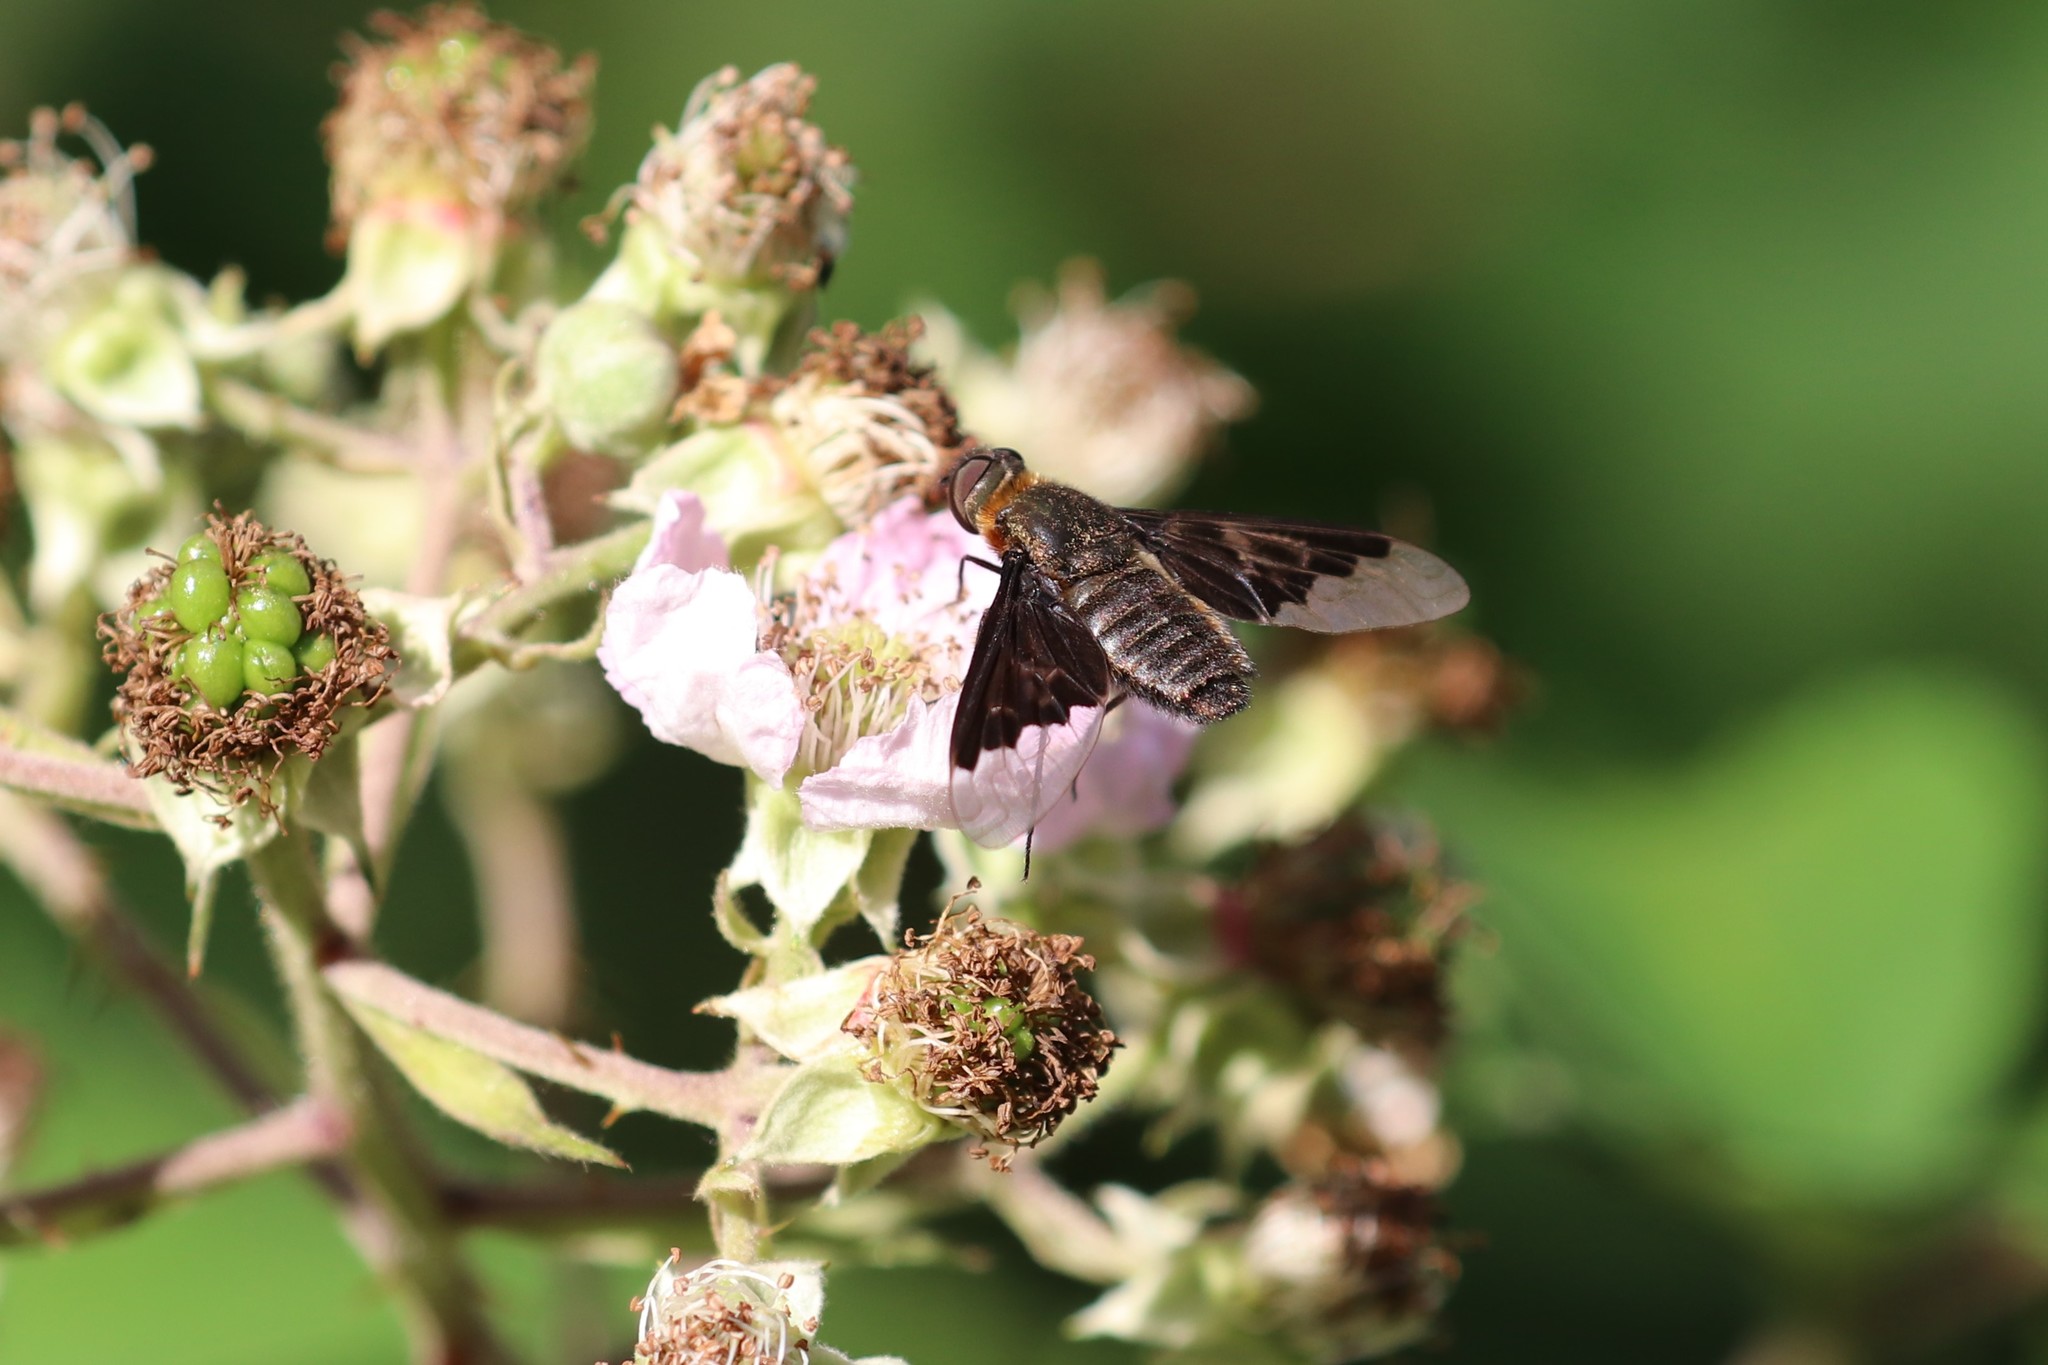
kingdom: Animalia
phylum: Arthropoda
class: Insecta
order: Diptera
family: Bombyliidae
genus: Hemipenthes
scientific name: Hemipenthes morio
